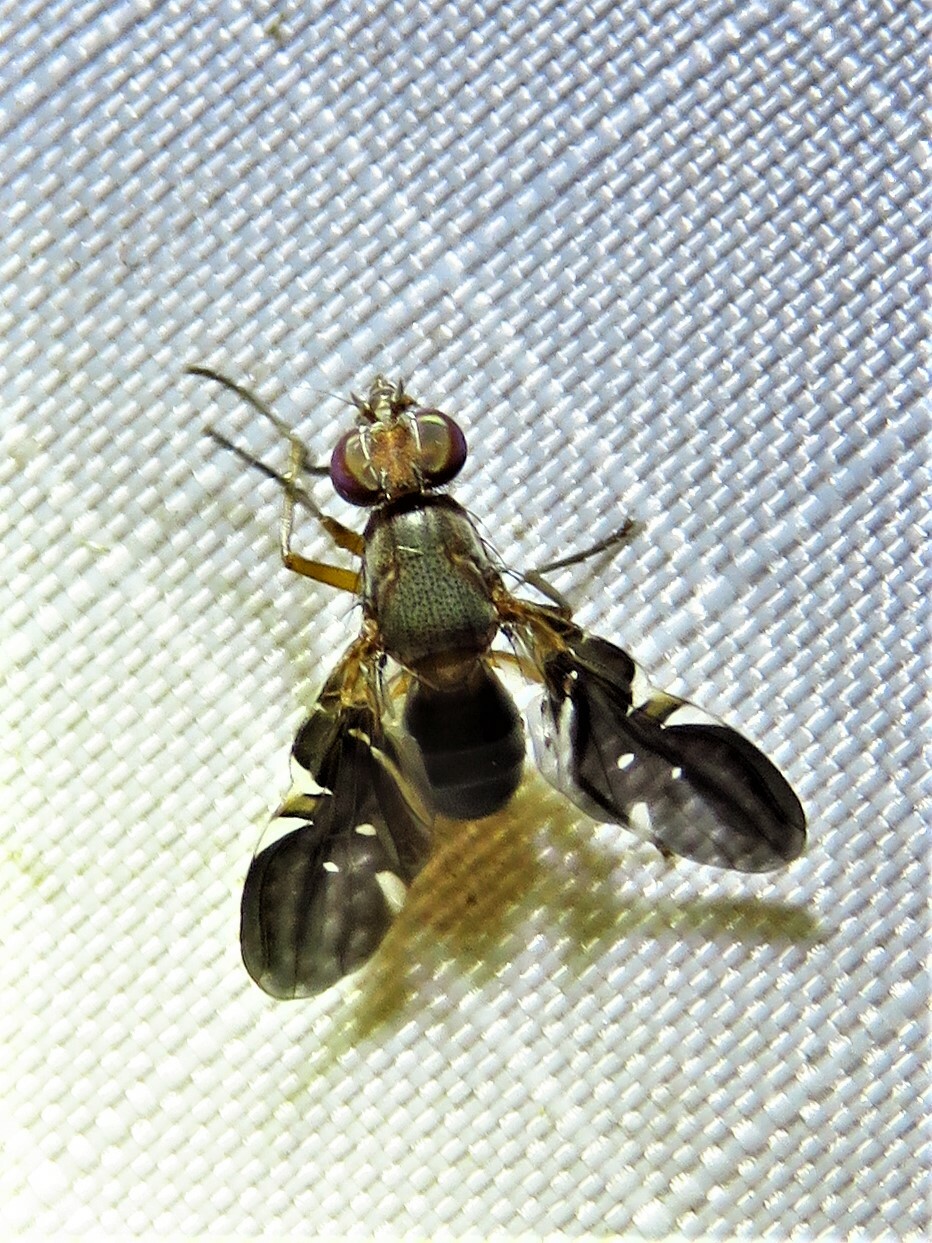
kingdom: Animalia
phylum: Arthropoda
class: Insecta
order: Diptera
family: Ulidiidae
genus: Delphinia
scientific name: Delphinia picta
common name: Common picture-winged fly
